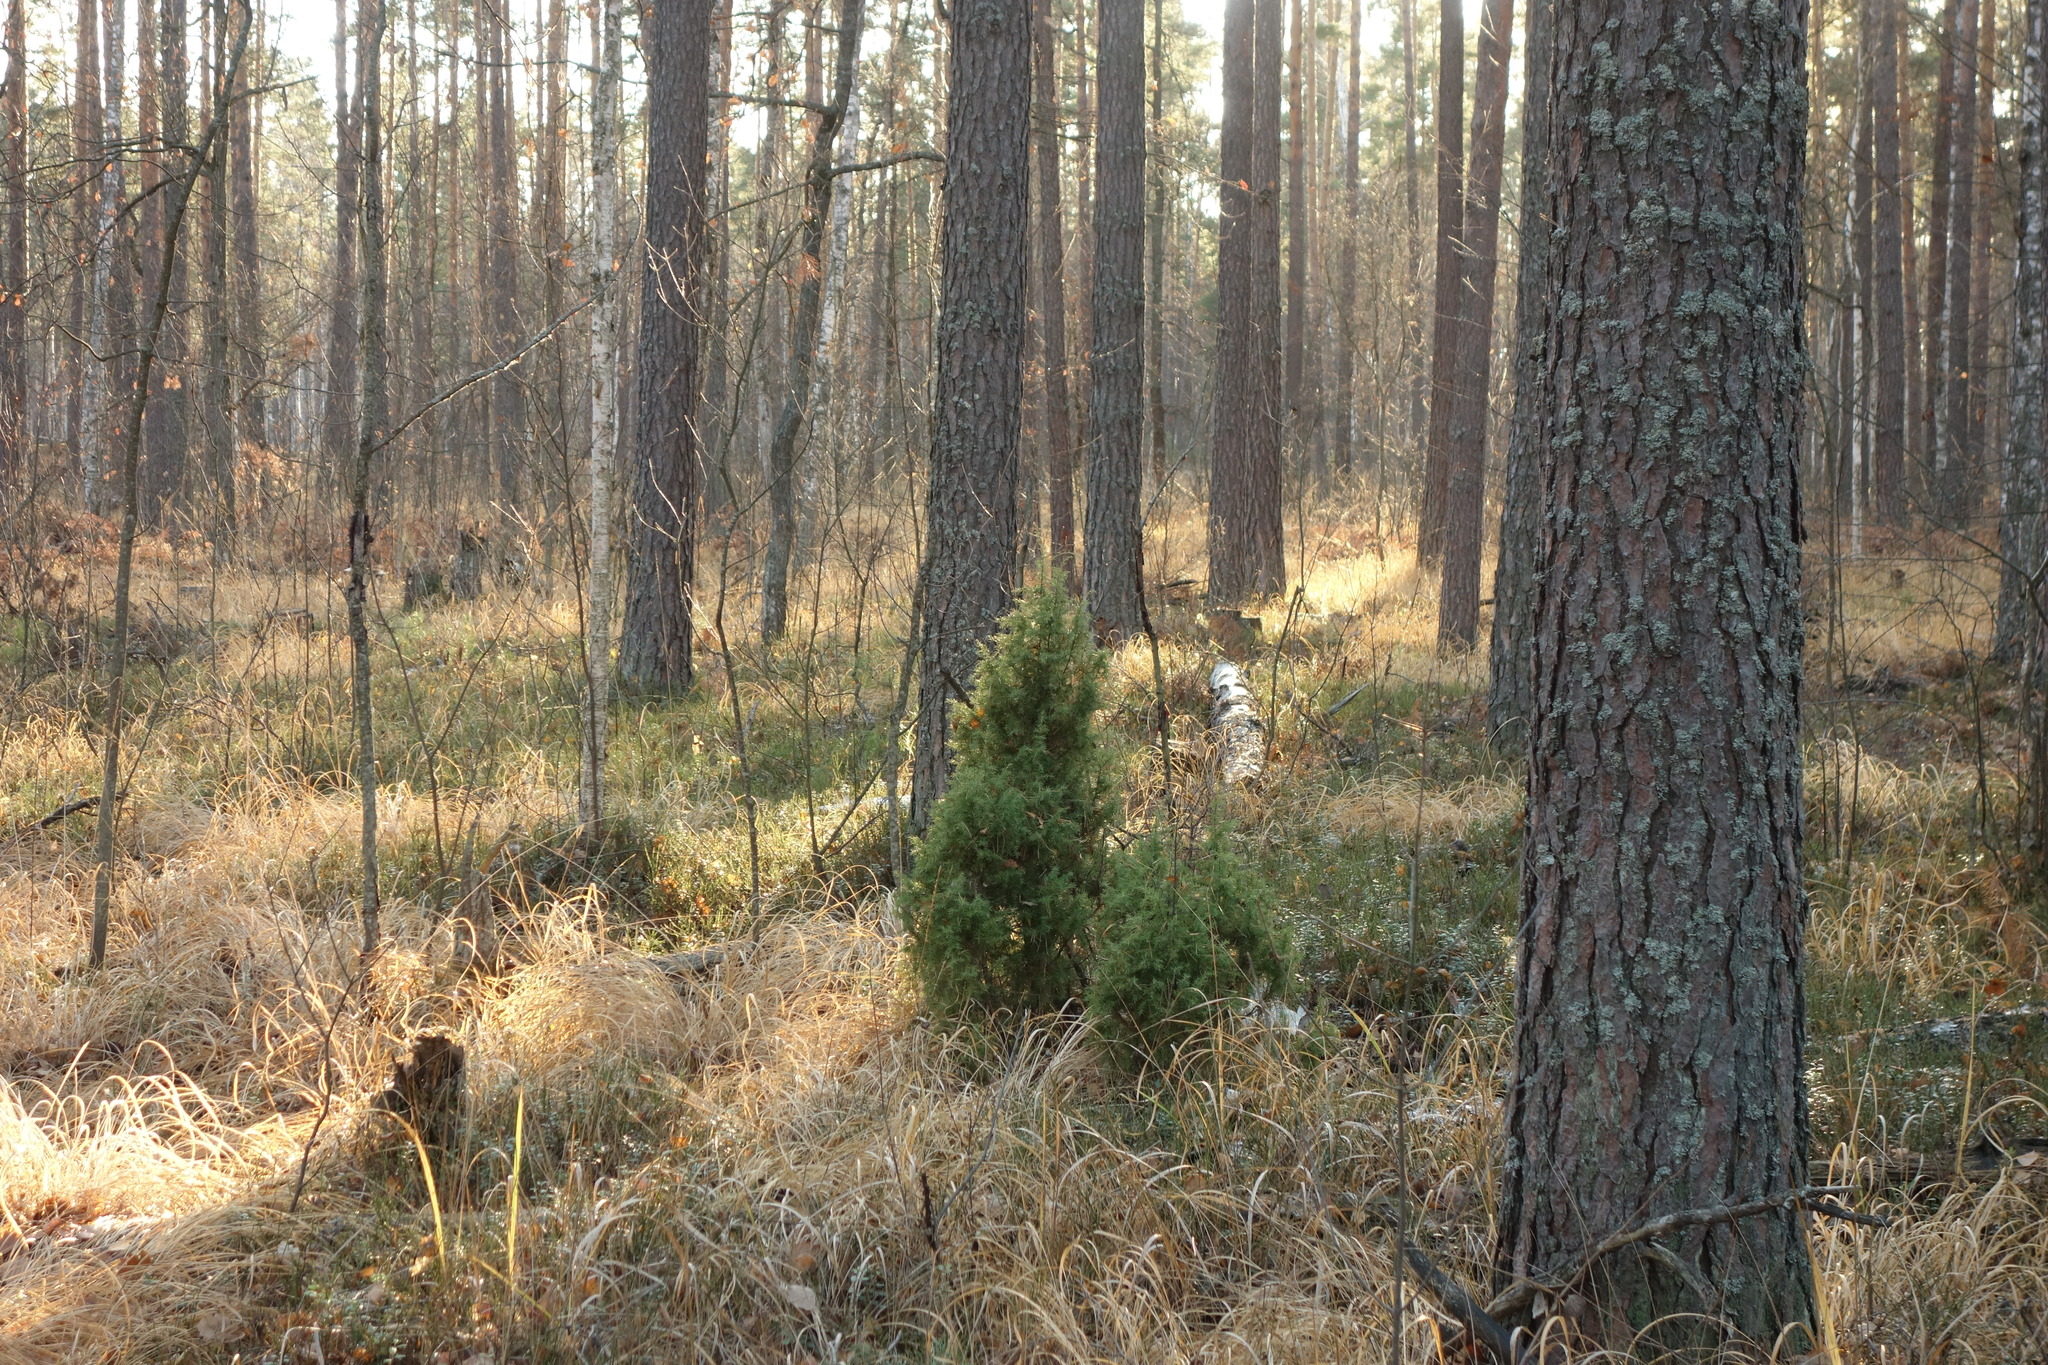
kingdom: Plantae
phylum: Tracheophyta
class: Pinopsida
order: Pinales
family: Cupressaceae
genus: Juniperus
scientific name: Juniperus communis
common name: Common juniper
